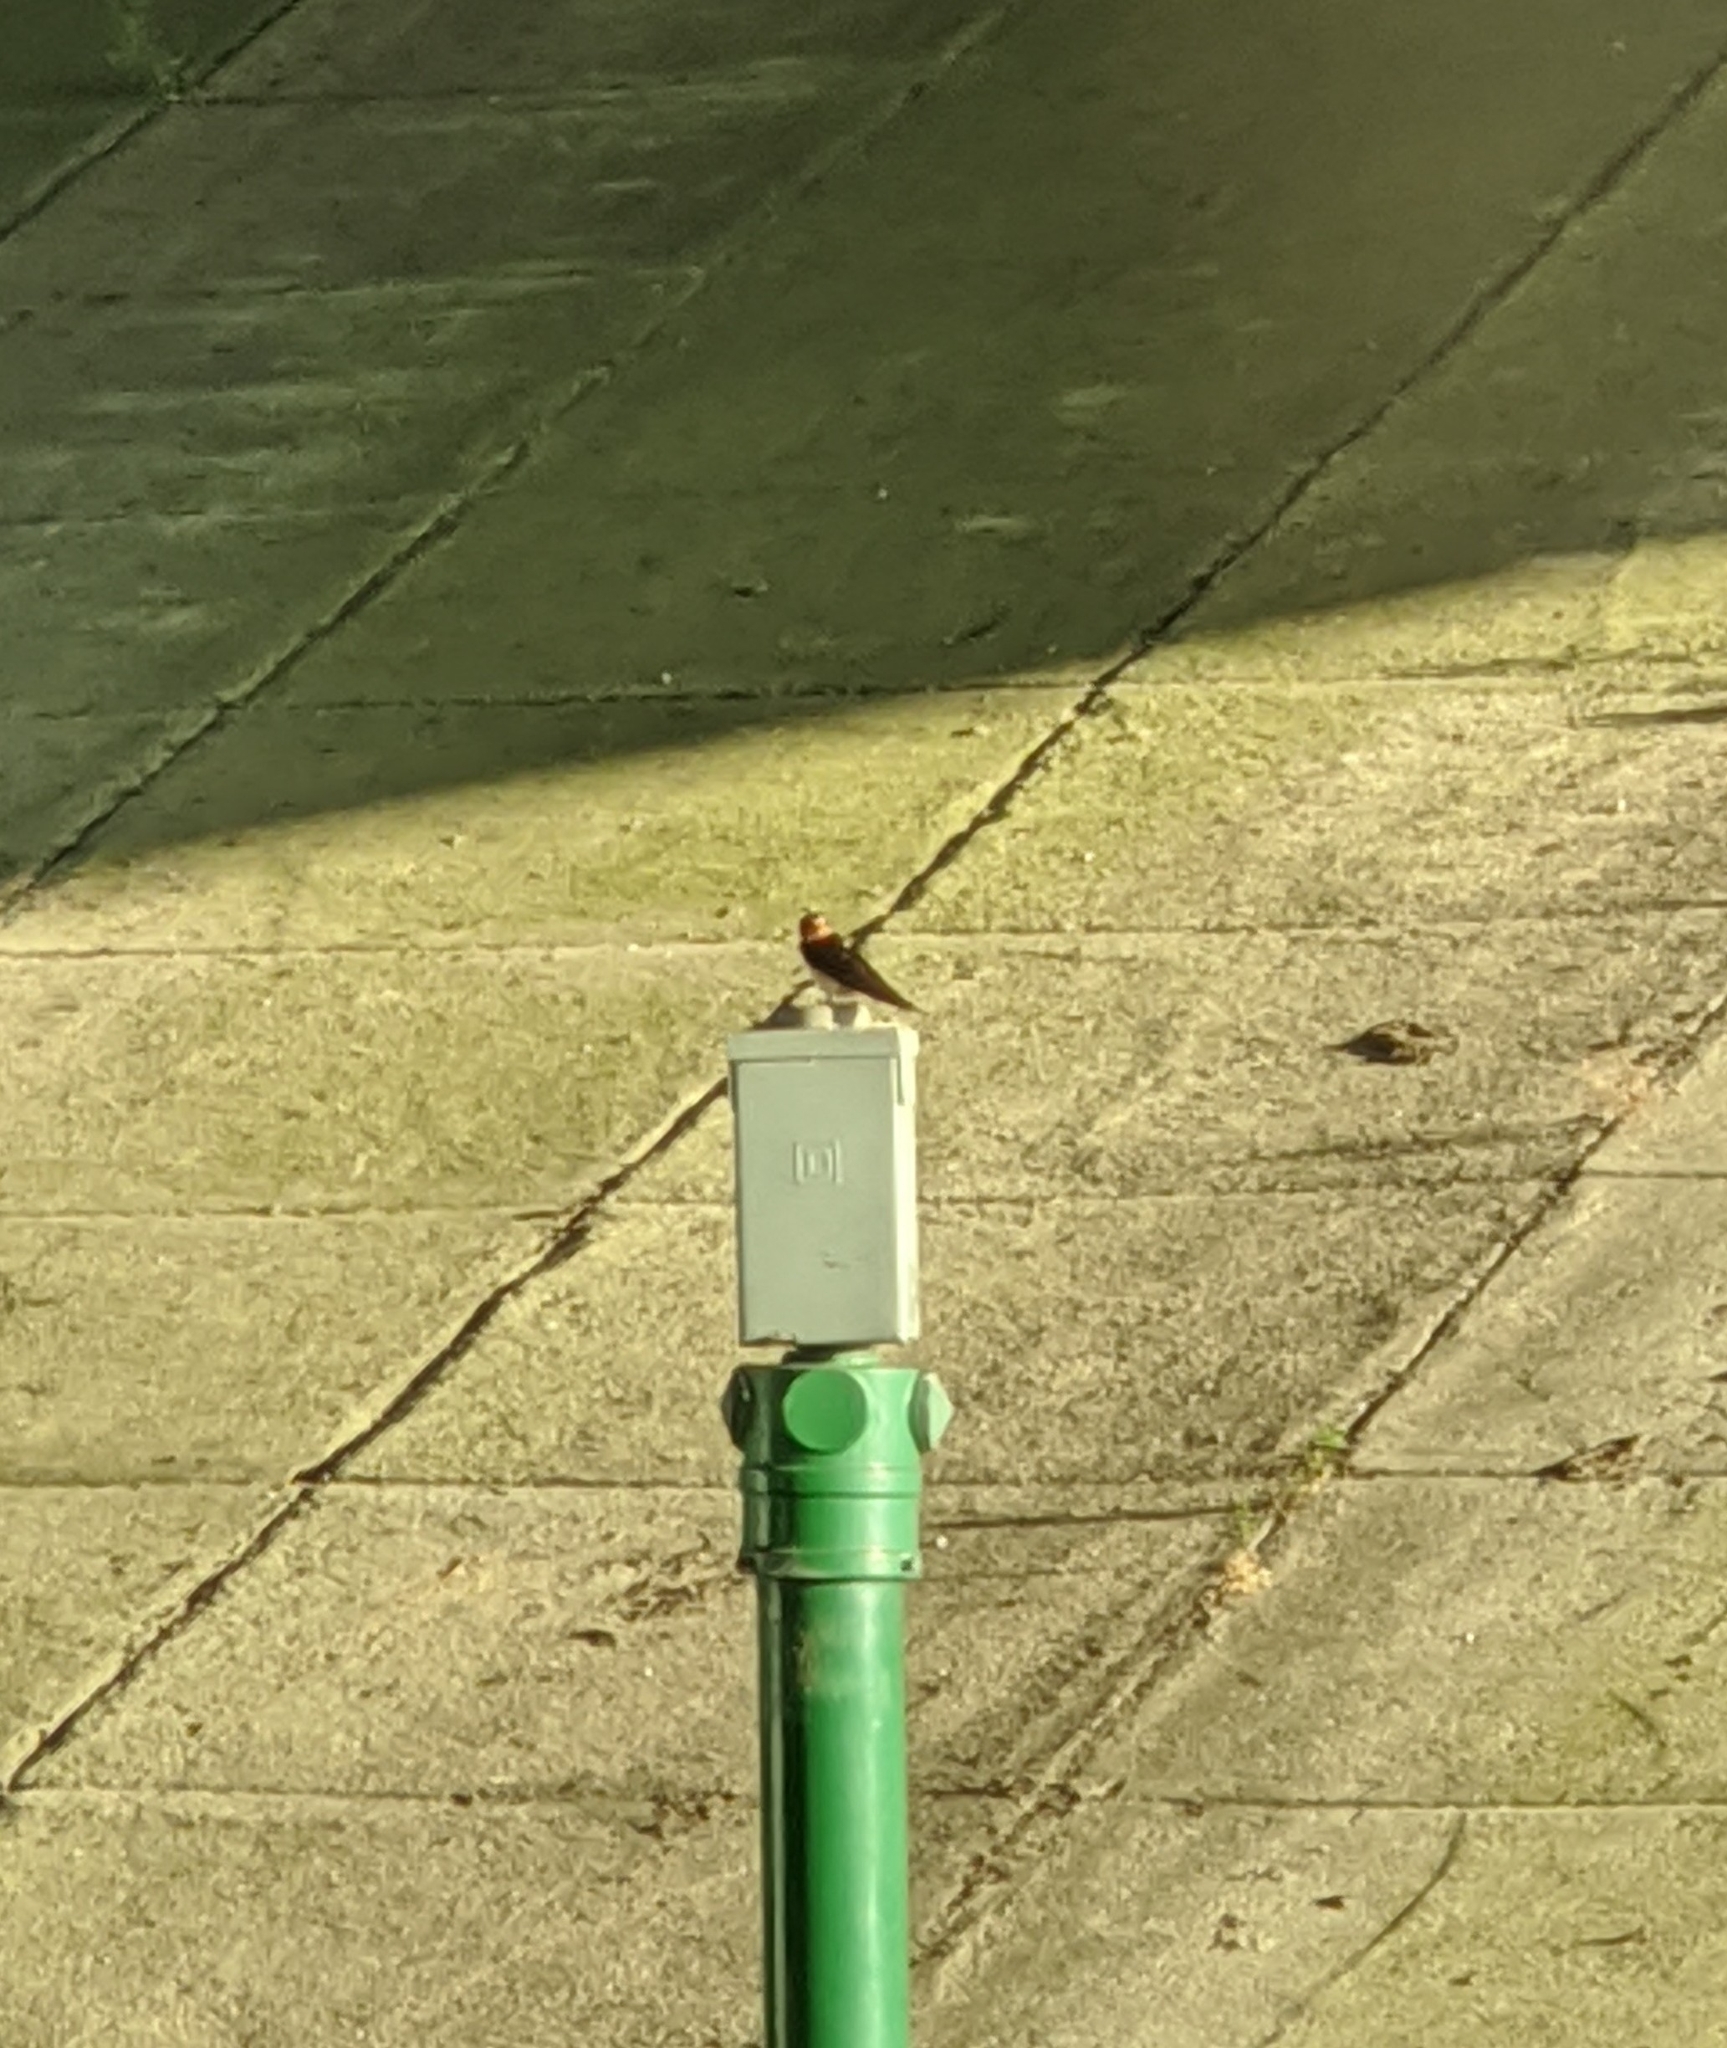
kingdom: Animalia
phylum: Chordata
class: Aves
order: Passeriformes
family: Hirundinidae
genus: Hirundo
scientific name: Hirundo rustica
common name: Barn swallow
